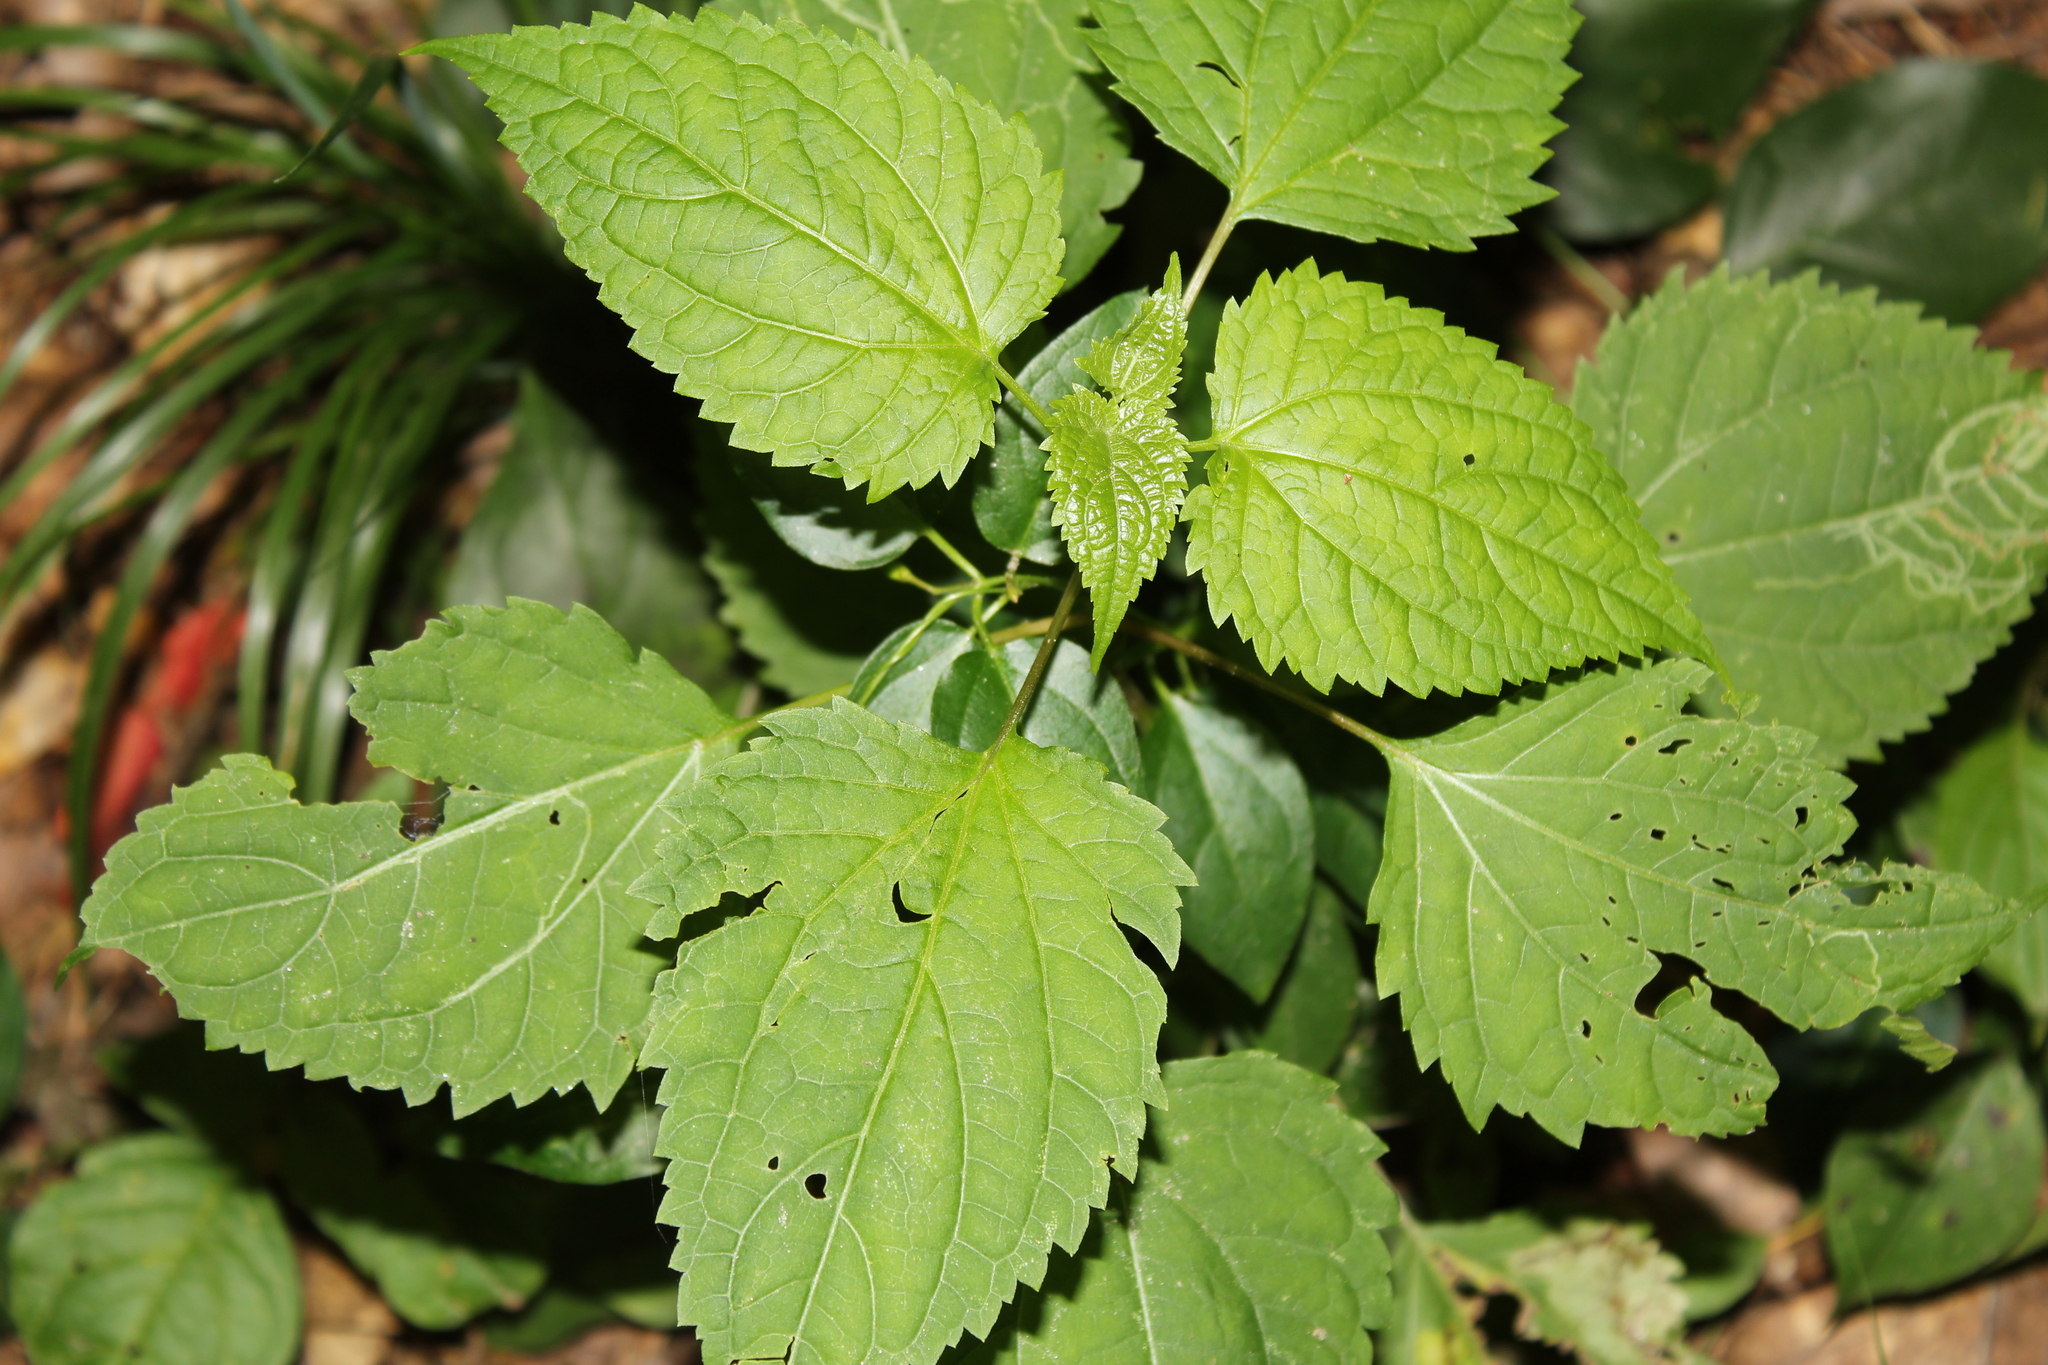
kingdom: Plantae
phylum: Tracheophyta
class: Magnoliopsida
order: Asterales
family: Asteraceae
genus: Ageratina
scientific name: Ageratina altissima
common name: White snakeroot
